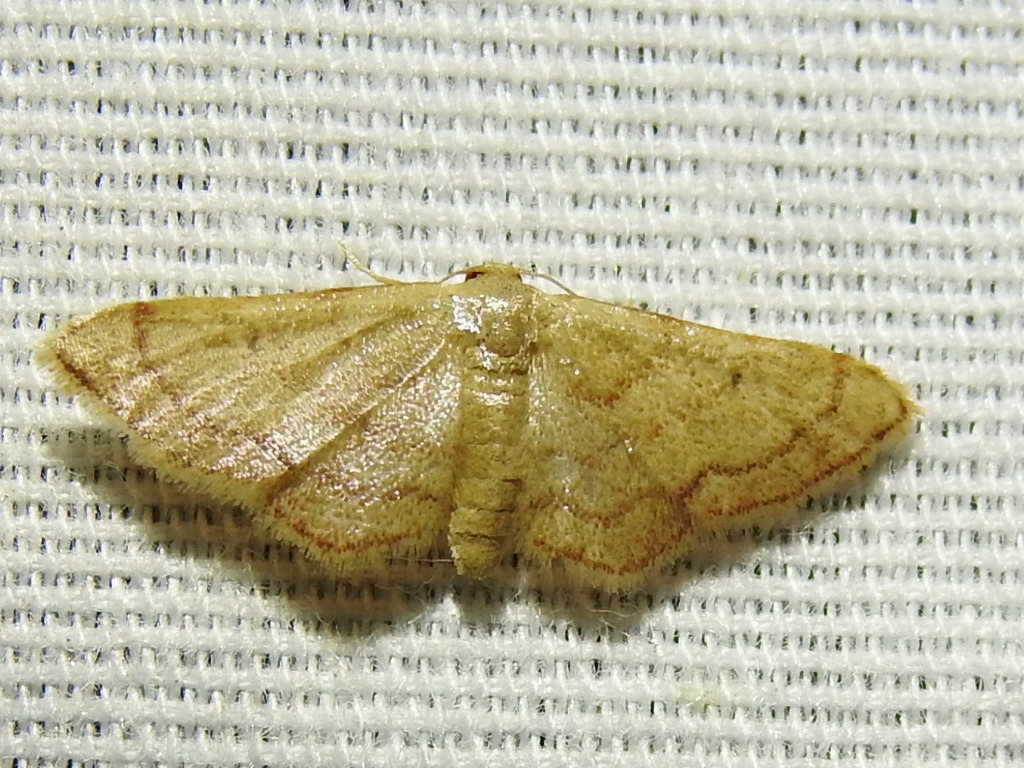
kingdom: Animalia
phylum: Arthropoda
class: Insecta
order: Lepidoptera
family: Geometridae
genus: Idaea
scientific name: Idaea demissaria
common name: Red-bordered wave
